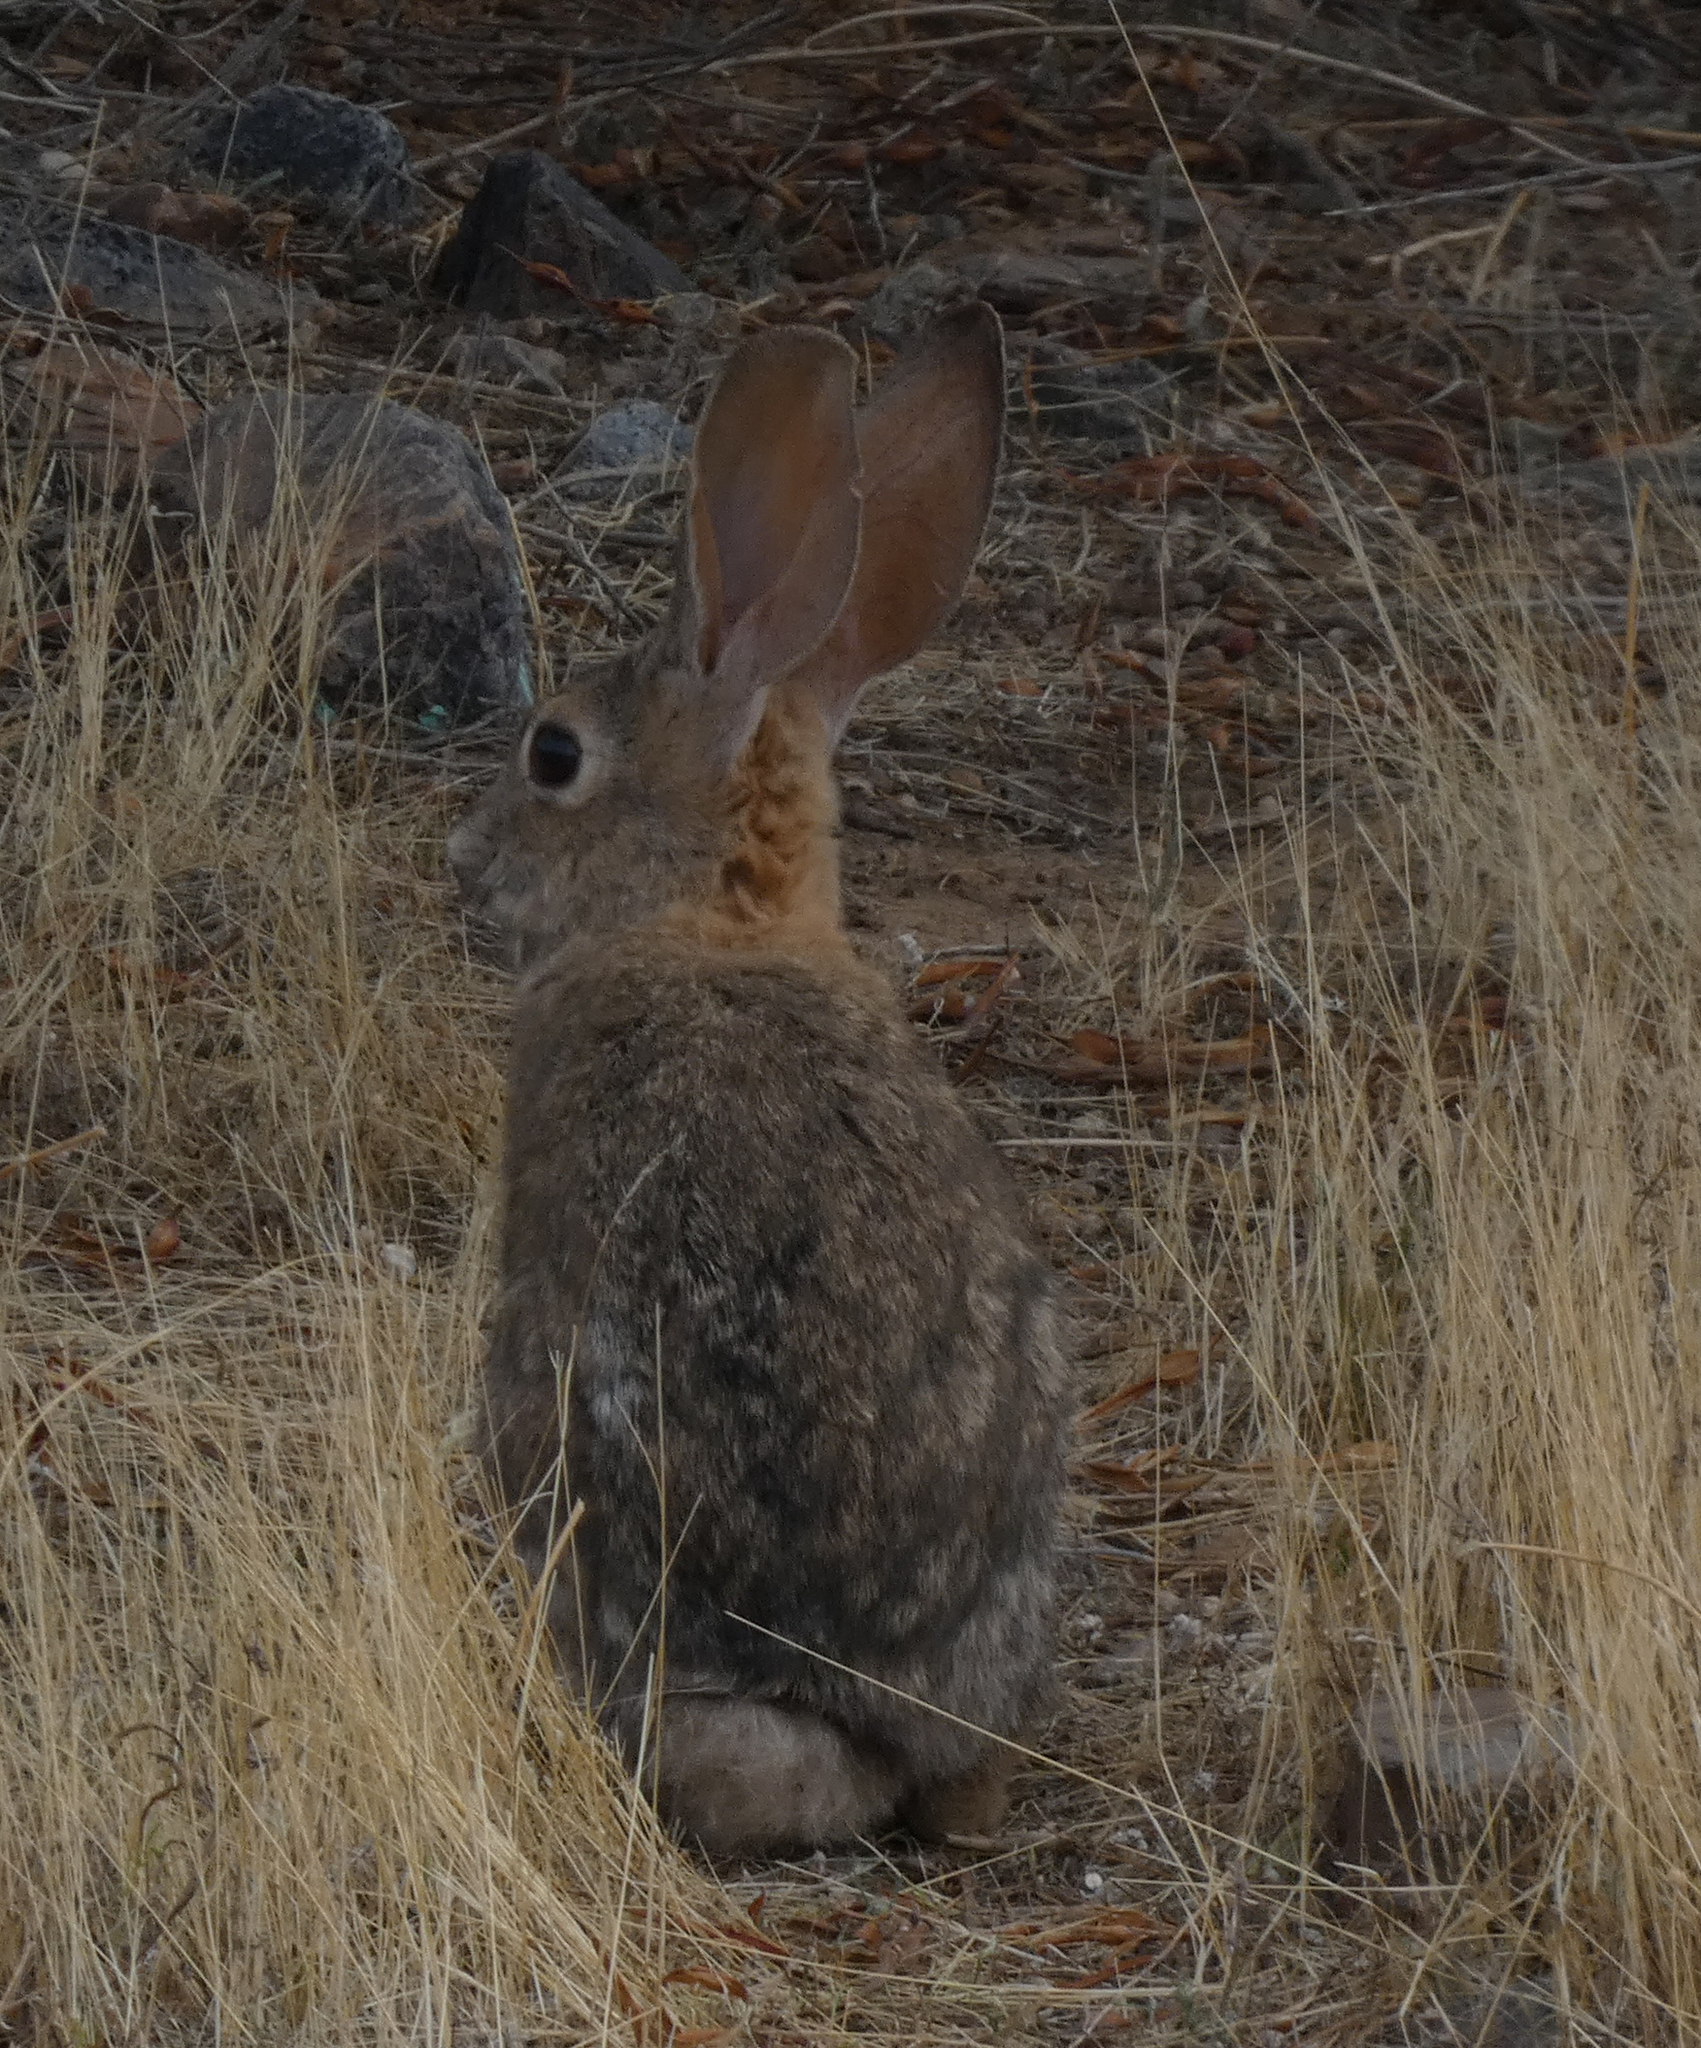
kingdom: Animalia
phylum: Chordata
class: Mammalia
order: Lagomorpha
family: Leporidae
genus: Sylvilagus
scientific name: Sylvilagus audubonii
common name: Desert cottontail
